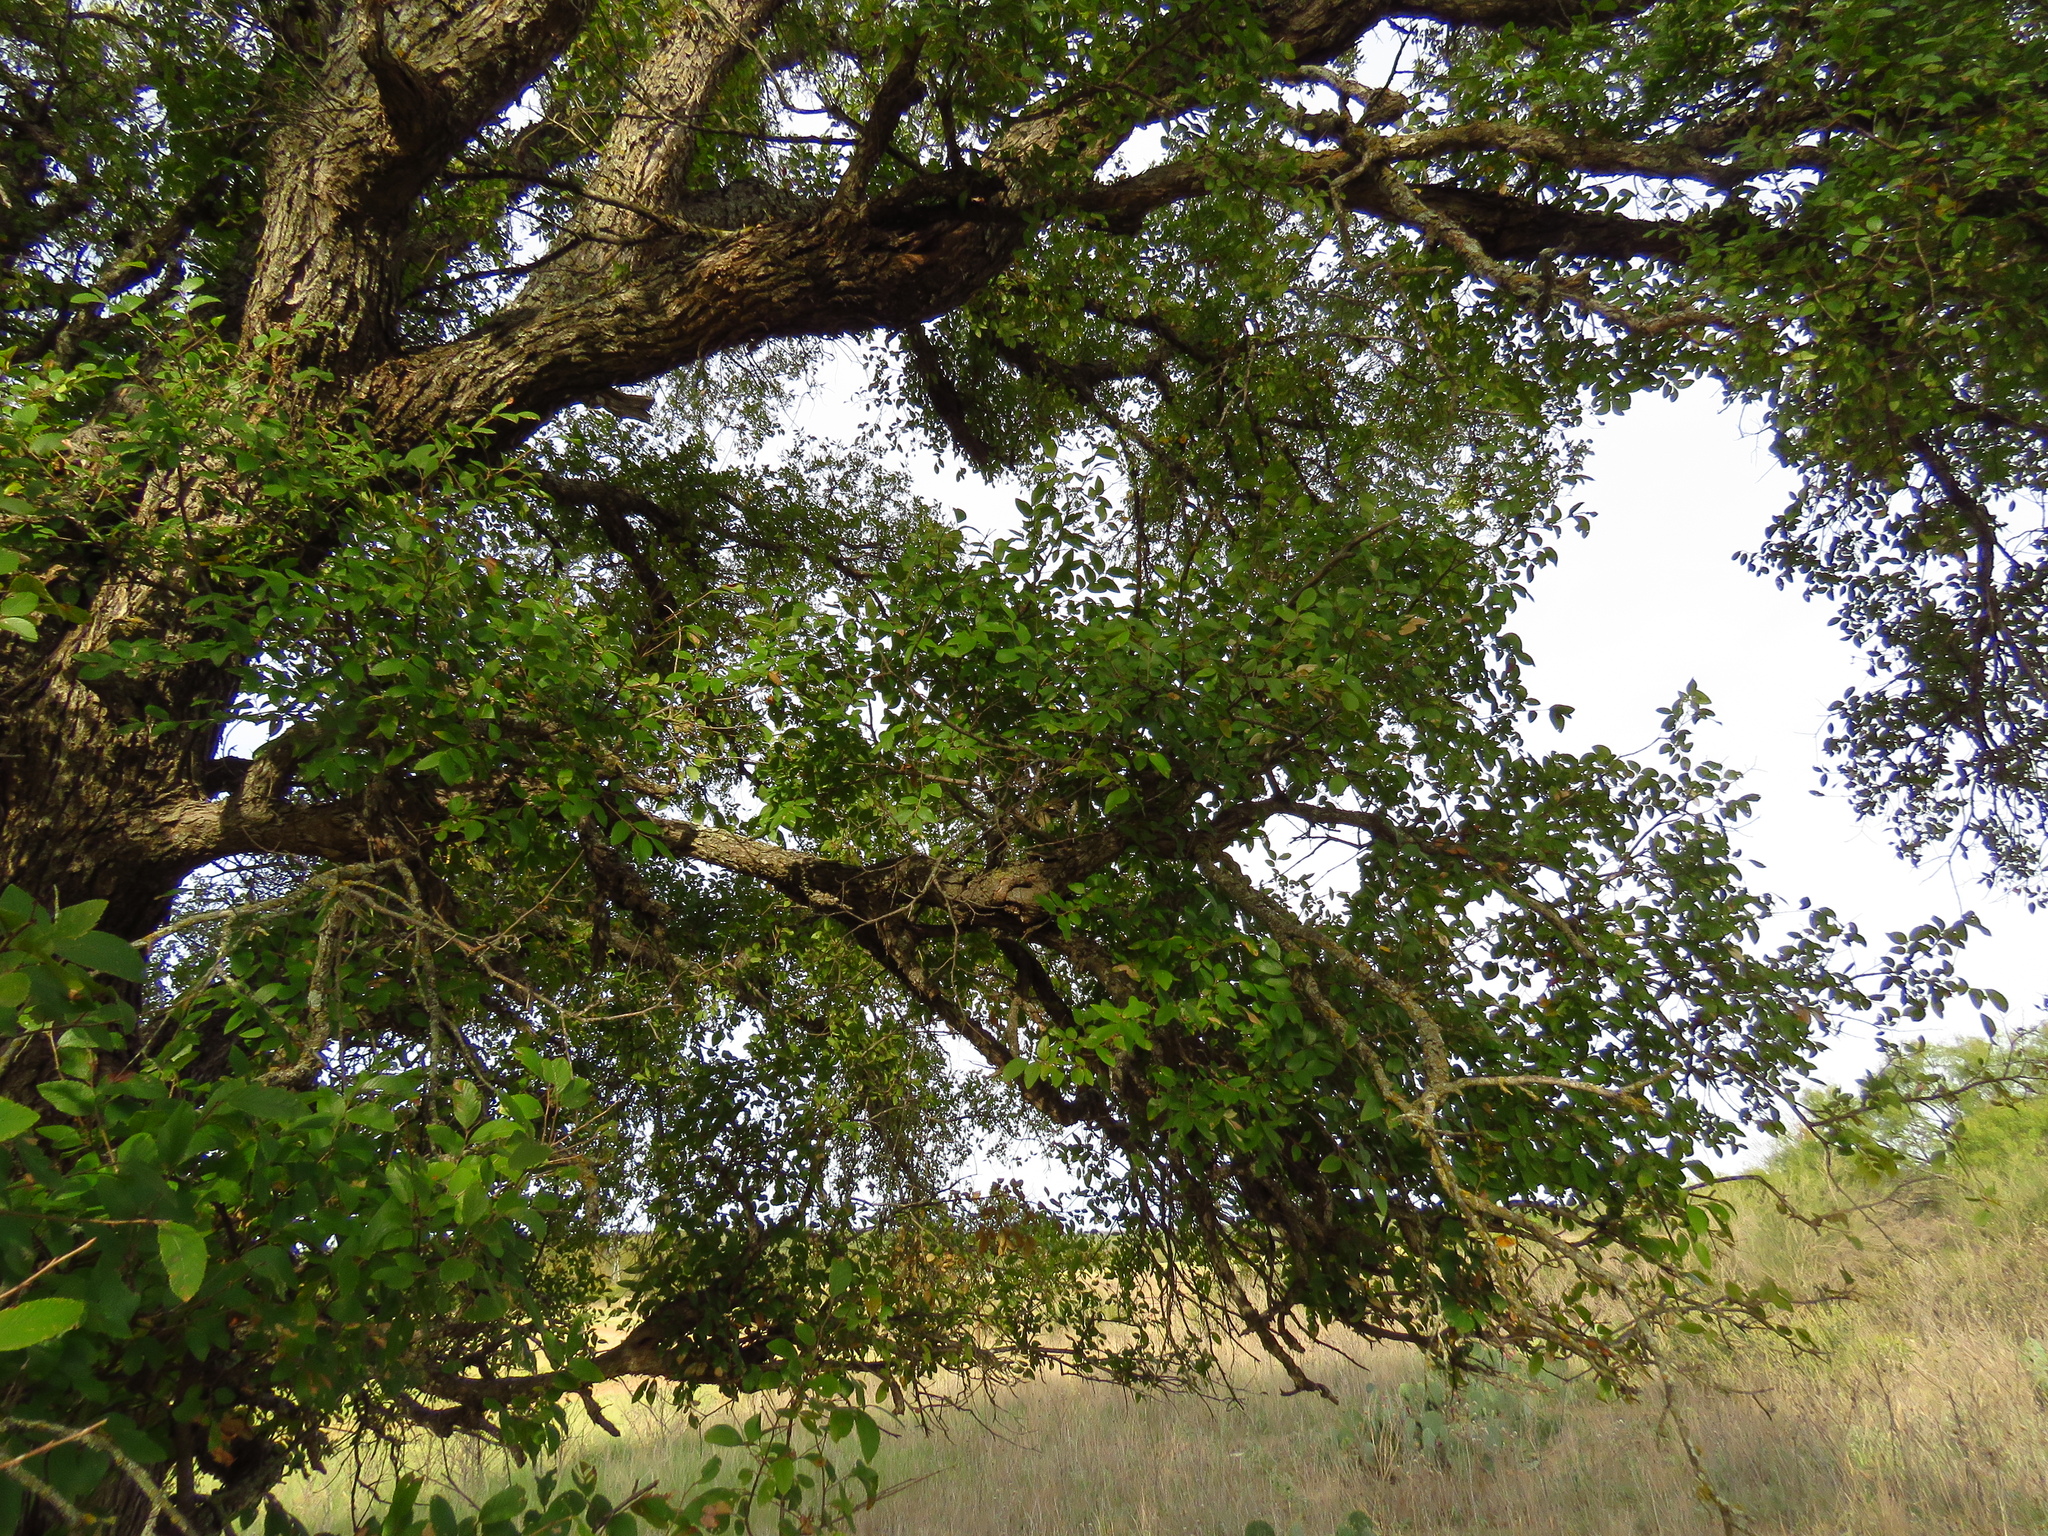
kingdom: Plantae
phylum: Tracheophyta
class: Magnoliopsida
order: Rosales
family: Ulmaceae
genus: Ulmus
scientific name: Ulmus crassifolia
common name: Basket elm
